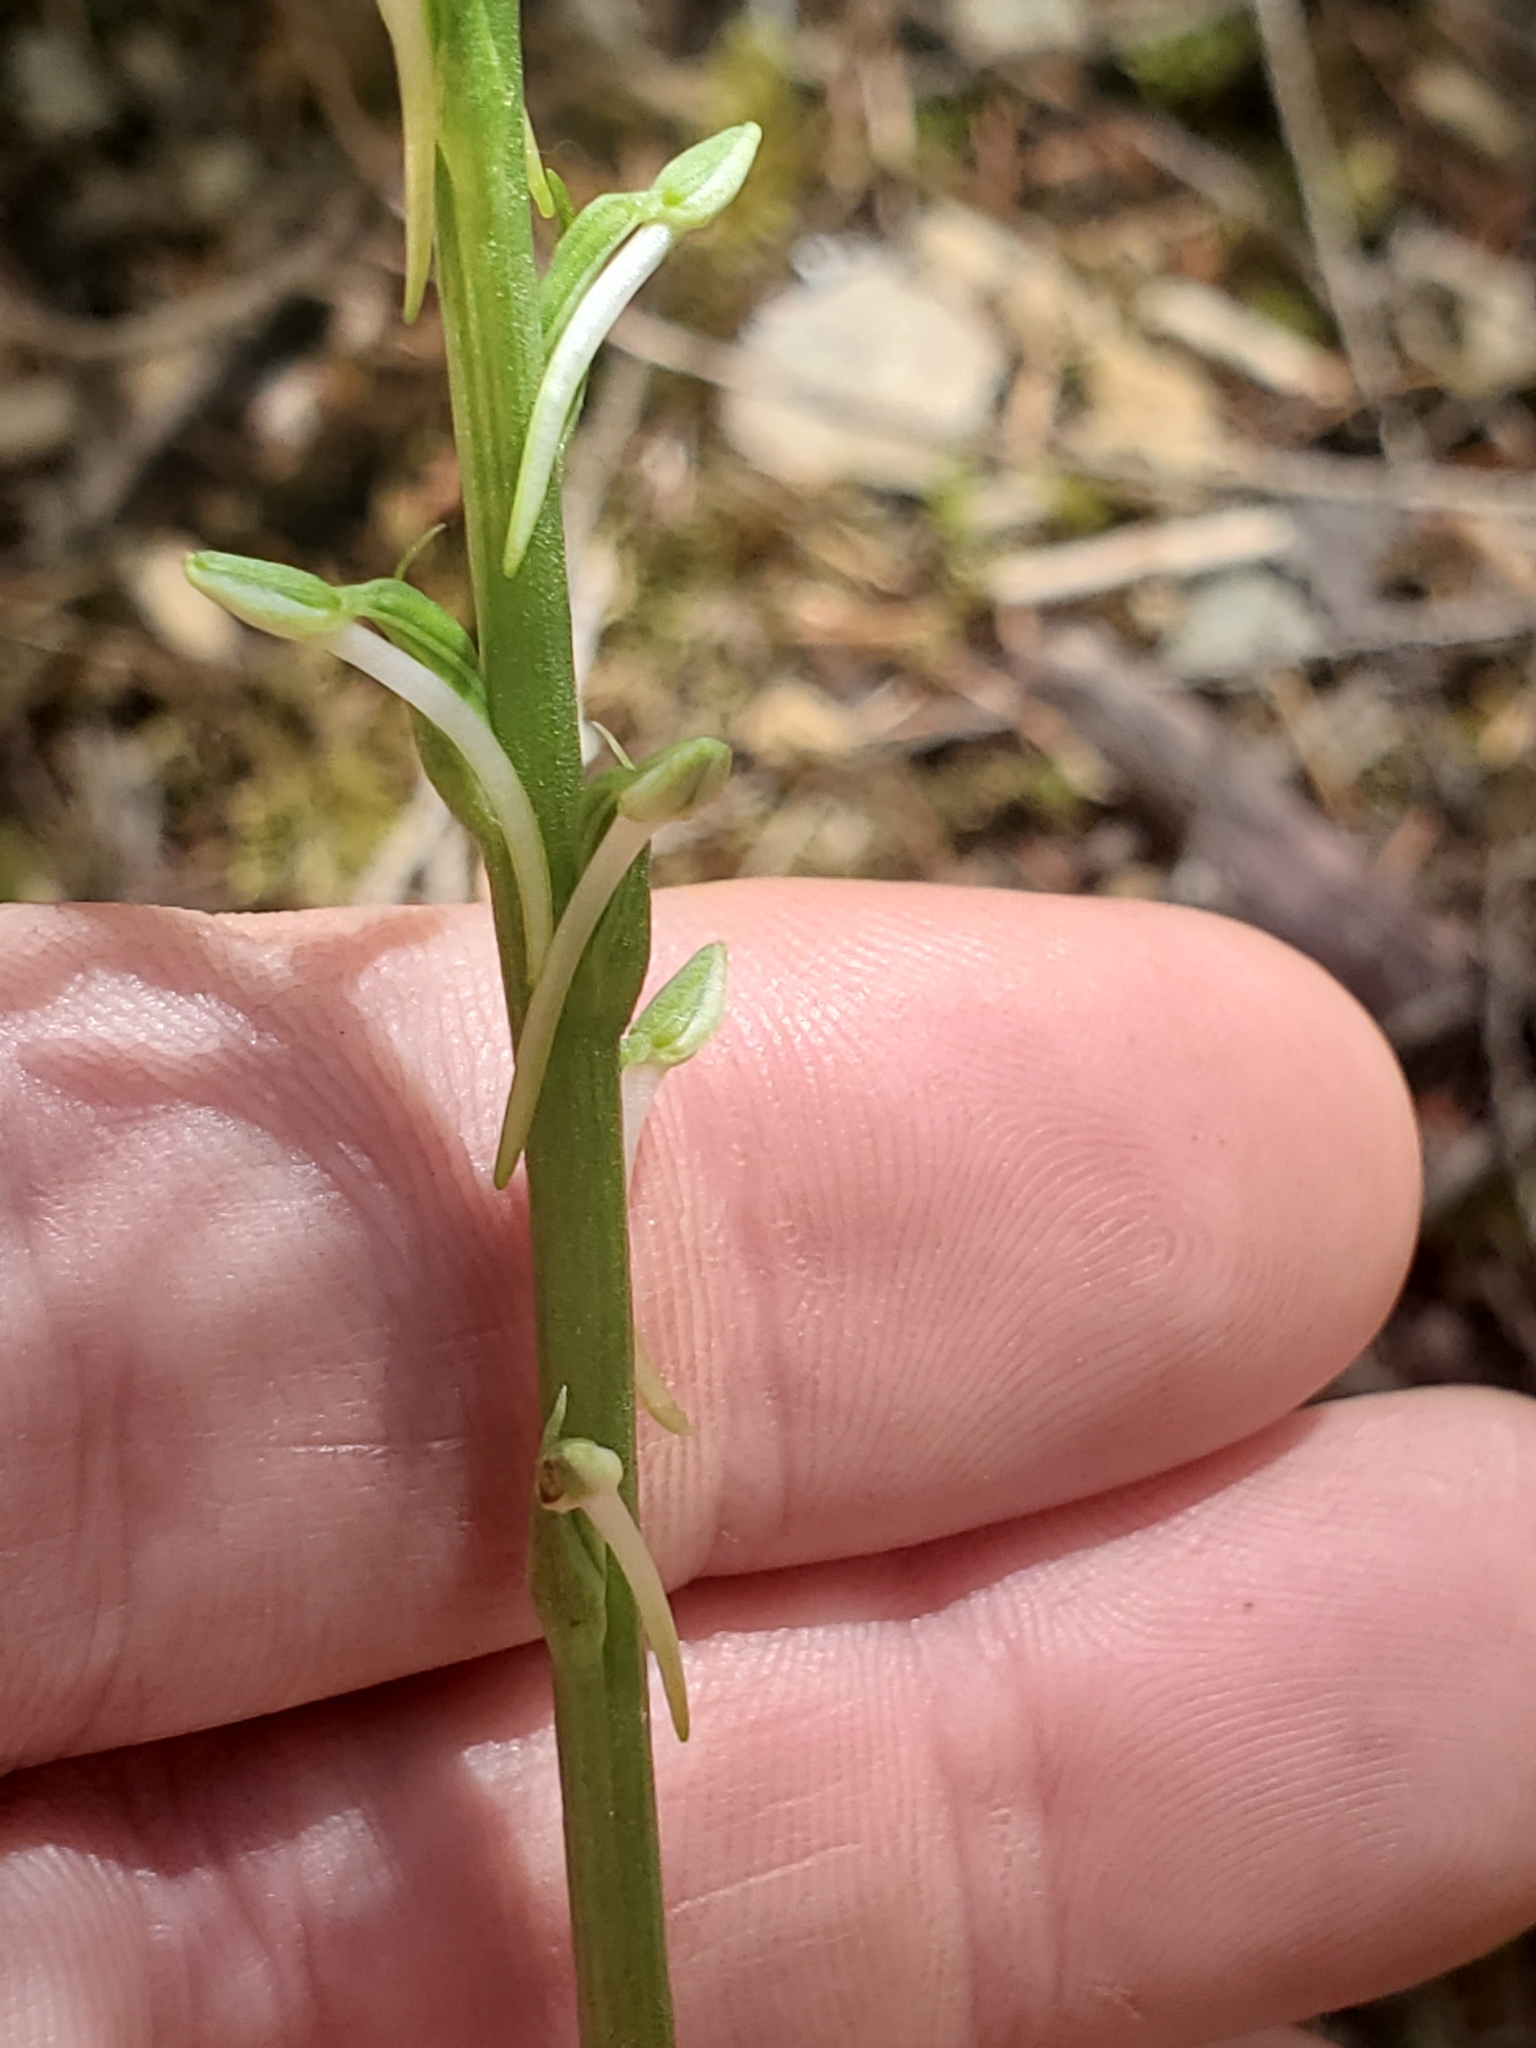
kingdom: Plantae
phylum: Tracheophyta
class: Liliopsida
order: Asparagales
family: Orchidaceae
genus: Platanthera
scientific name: Platanthera elongata
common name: Dense-flowered rein orchid
